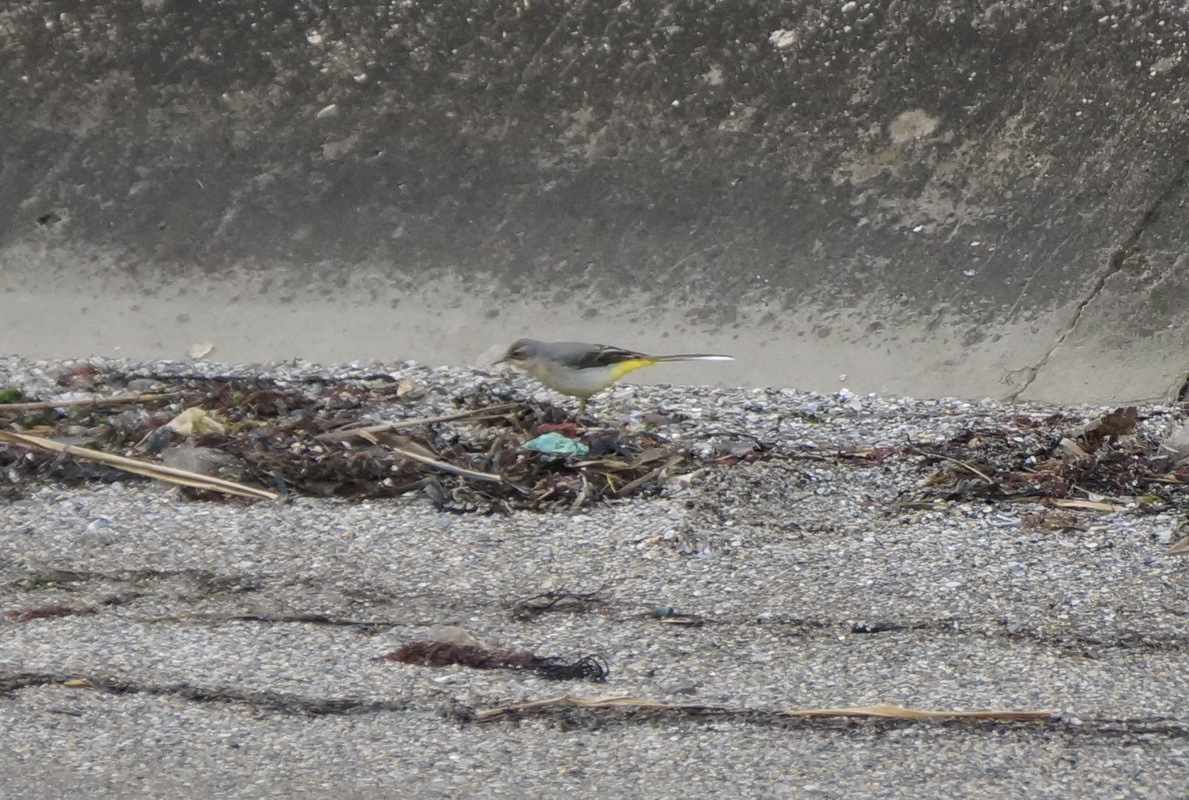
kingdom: Animalia
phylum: Chordata
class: Aves
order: Passeriformes
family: Motacillidae
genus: Motacilla
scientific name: Motacilla cinerea
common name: Grey wagtail
